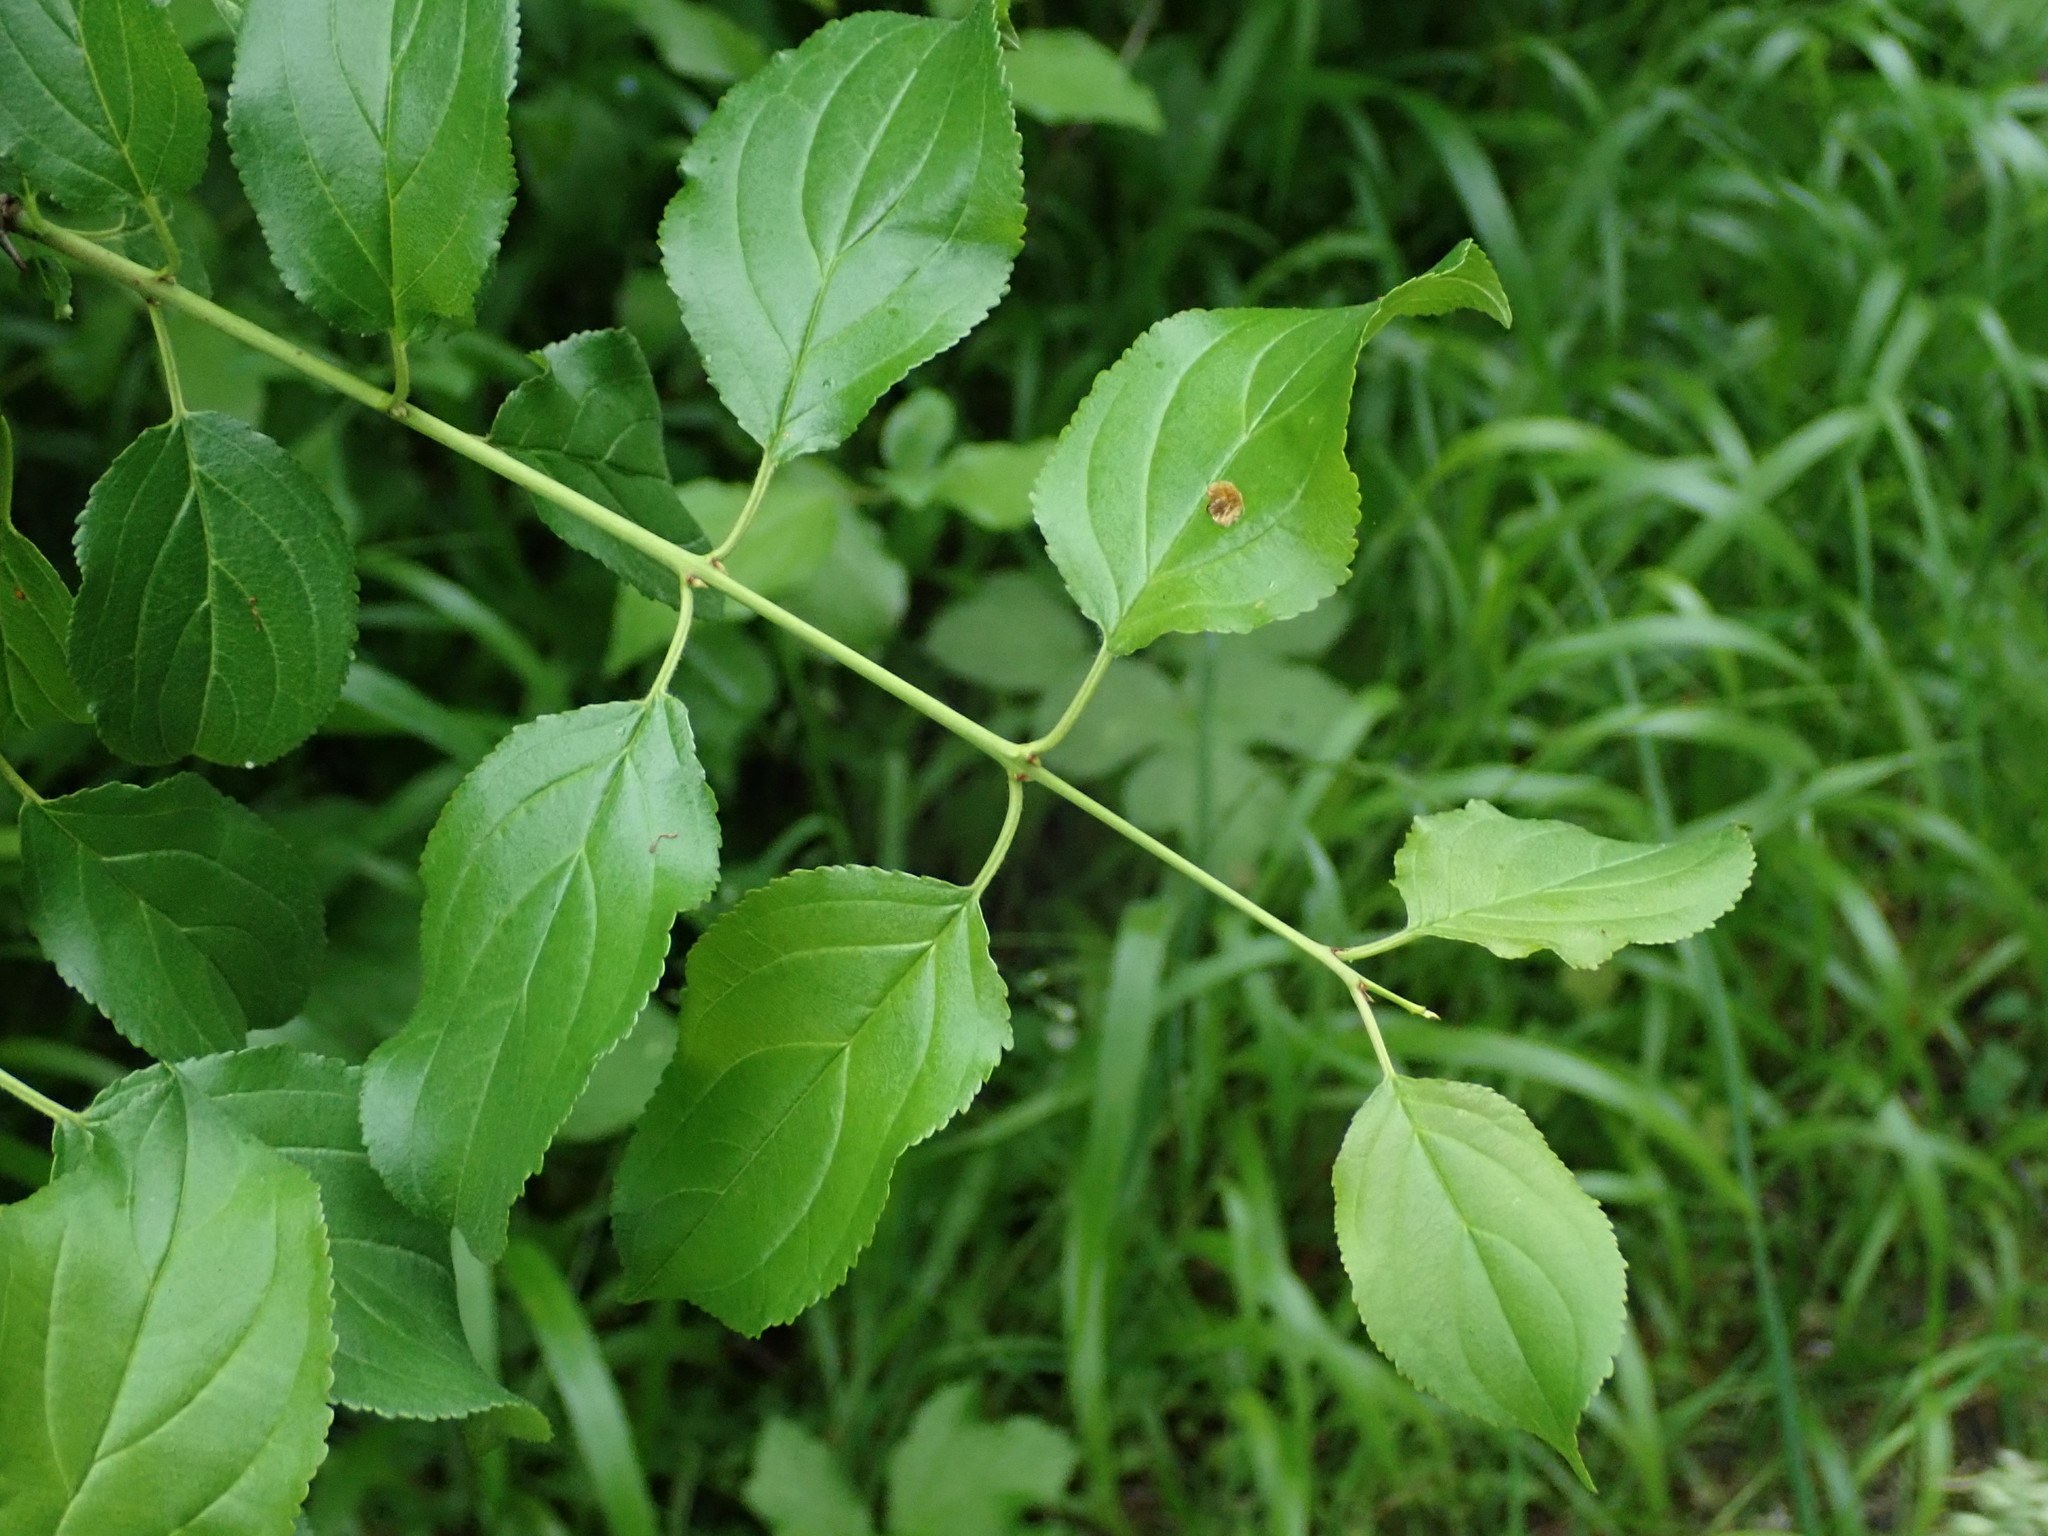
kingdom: Plantae
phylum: Tracheophyta
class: Magnoliopsida
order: Rosales
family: Rhamnaceae
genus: Rhamnus
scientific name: Rhamnus cathartica
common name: Common buckthorn
